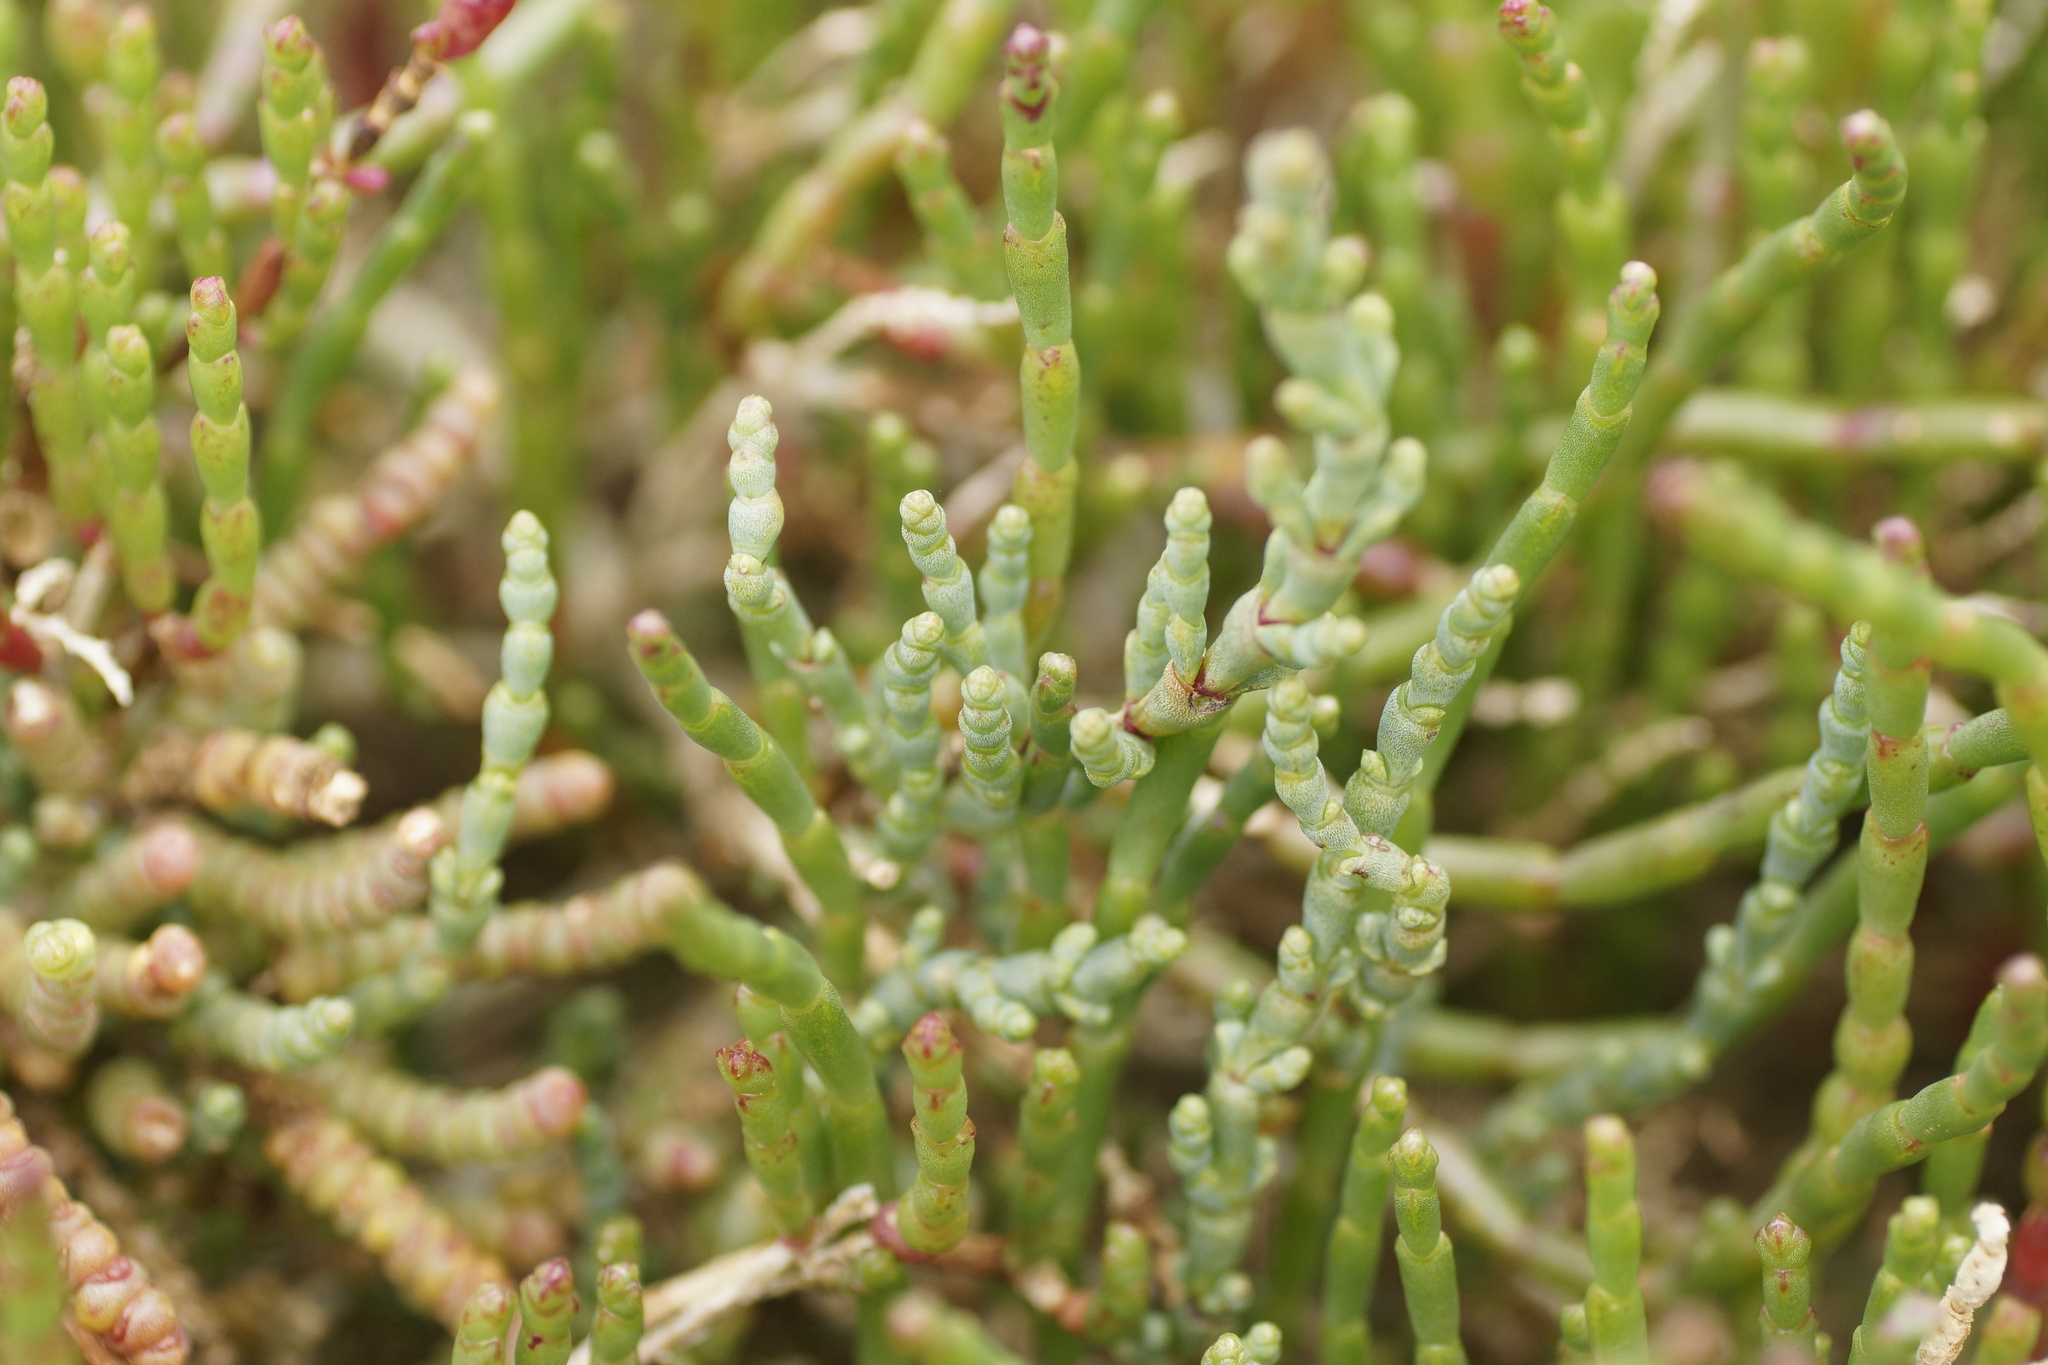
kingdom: Plantae
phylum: Tracheophyta
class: Magnoliopsida
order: Caryophyllales
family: Amaranthaceae
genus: Salicornia
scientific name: Salicornia quinqueflora
